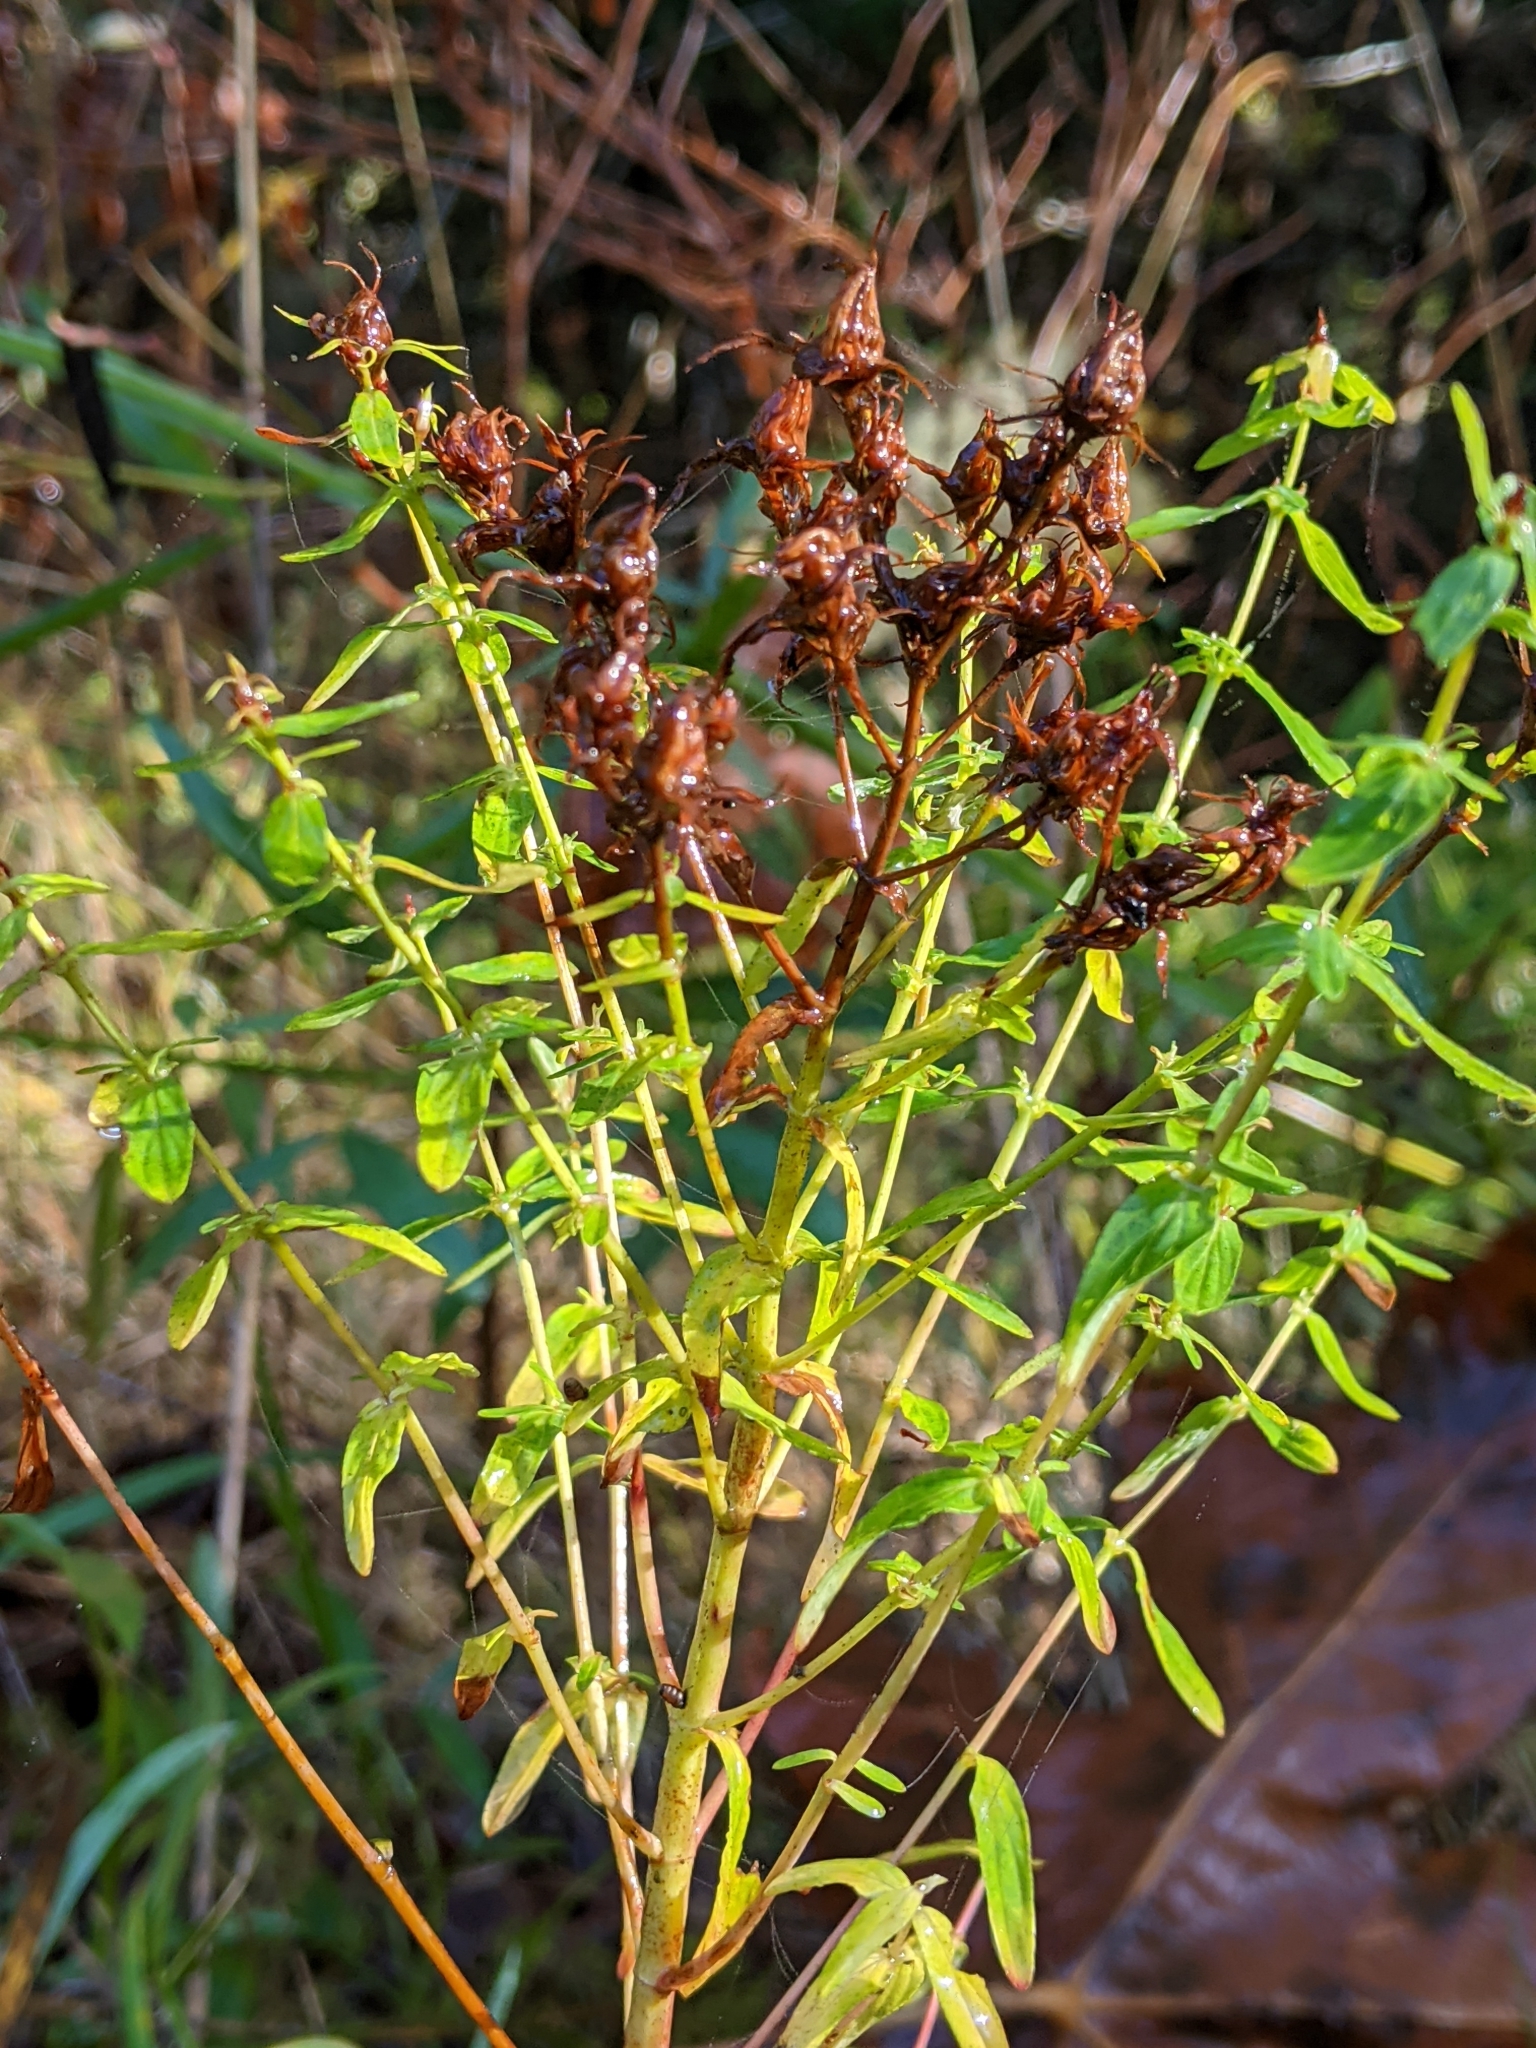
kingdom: Plantae
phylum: Tracheophyta
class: Magnoliopsida
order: Malpighiales
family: Hypericaceae
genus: Hypericum
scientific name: Hypericum perforatum
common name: Common st. johnswort
